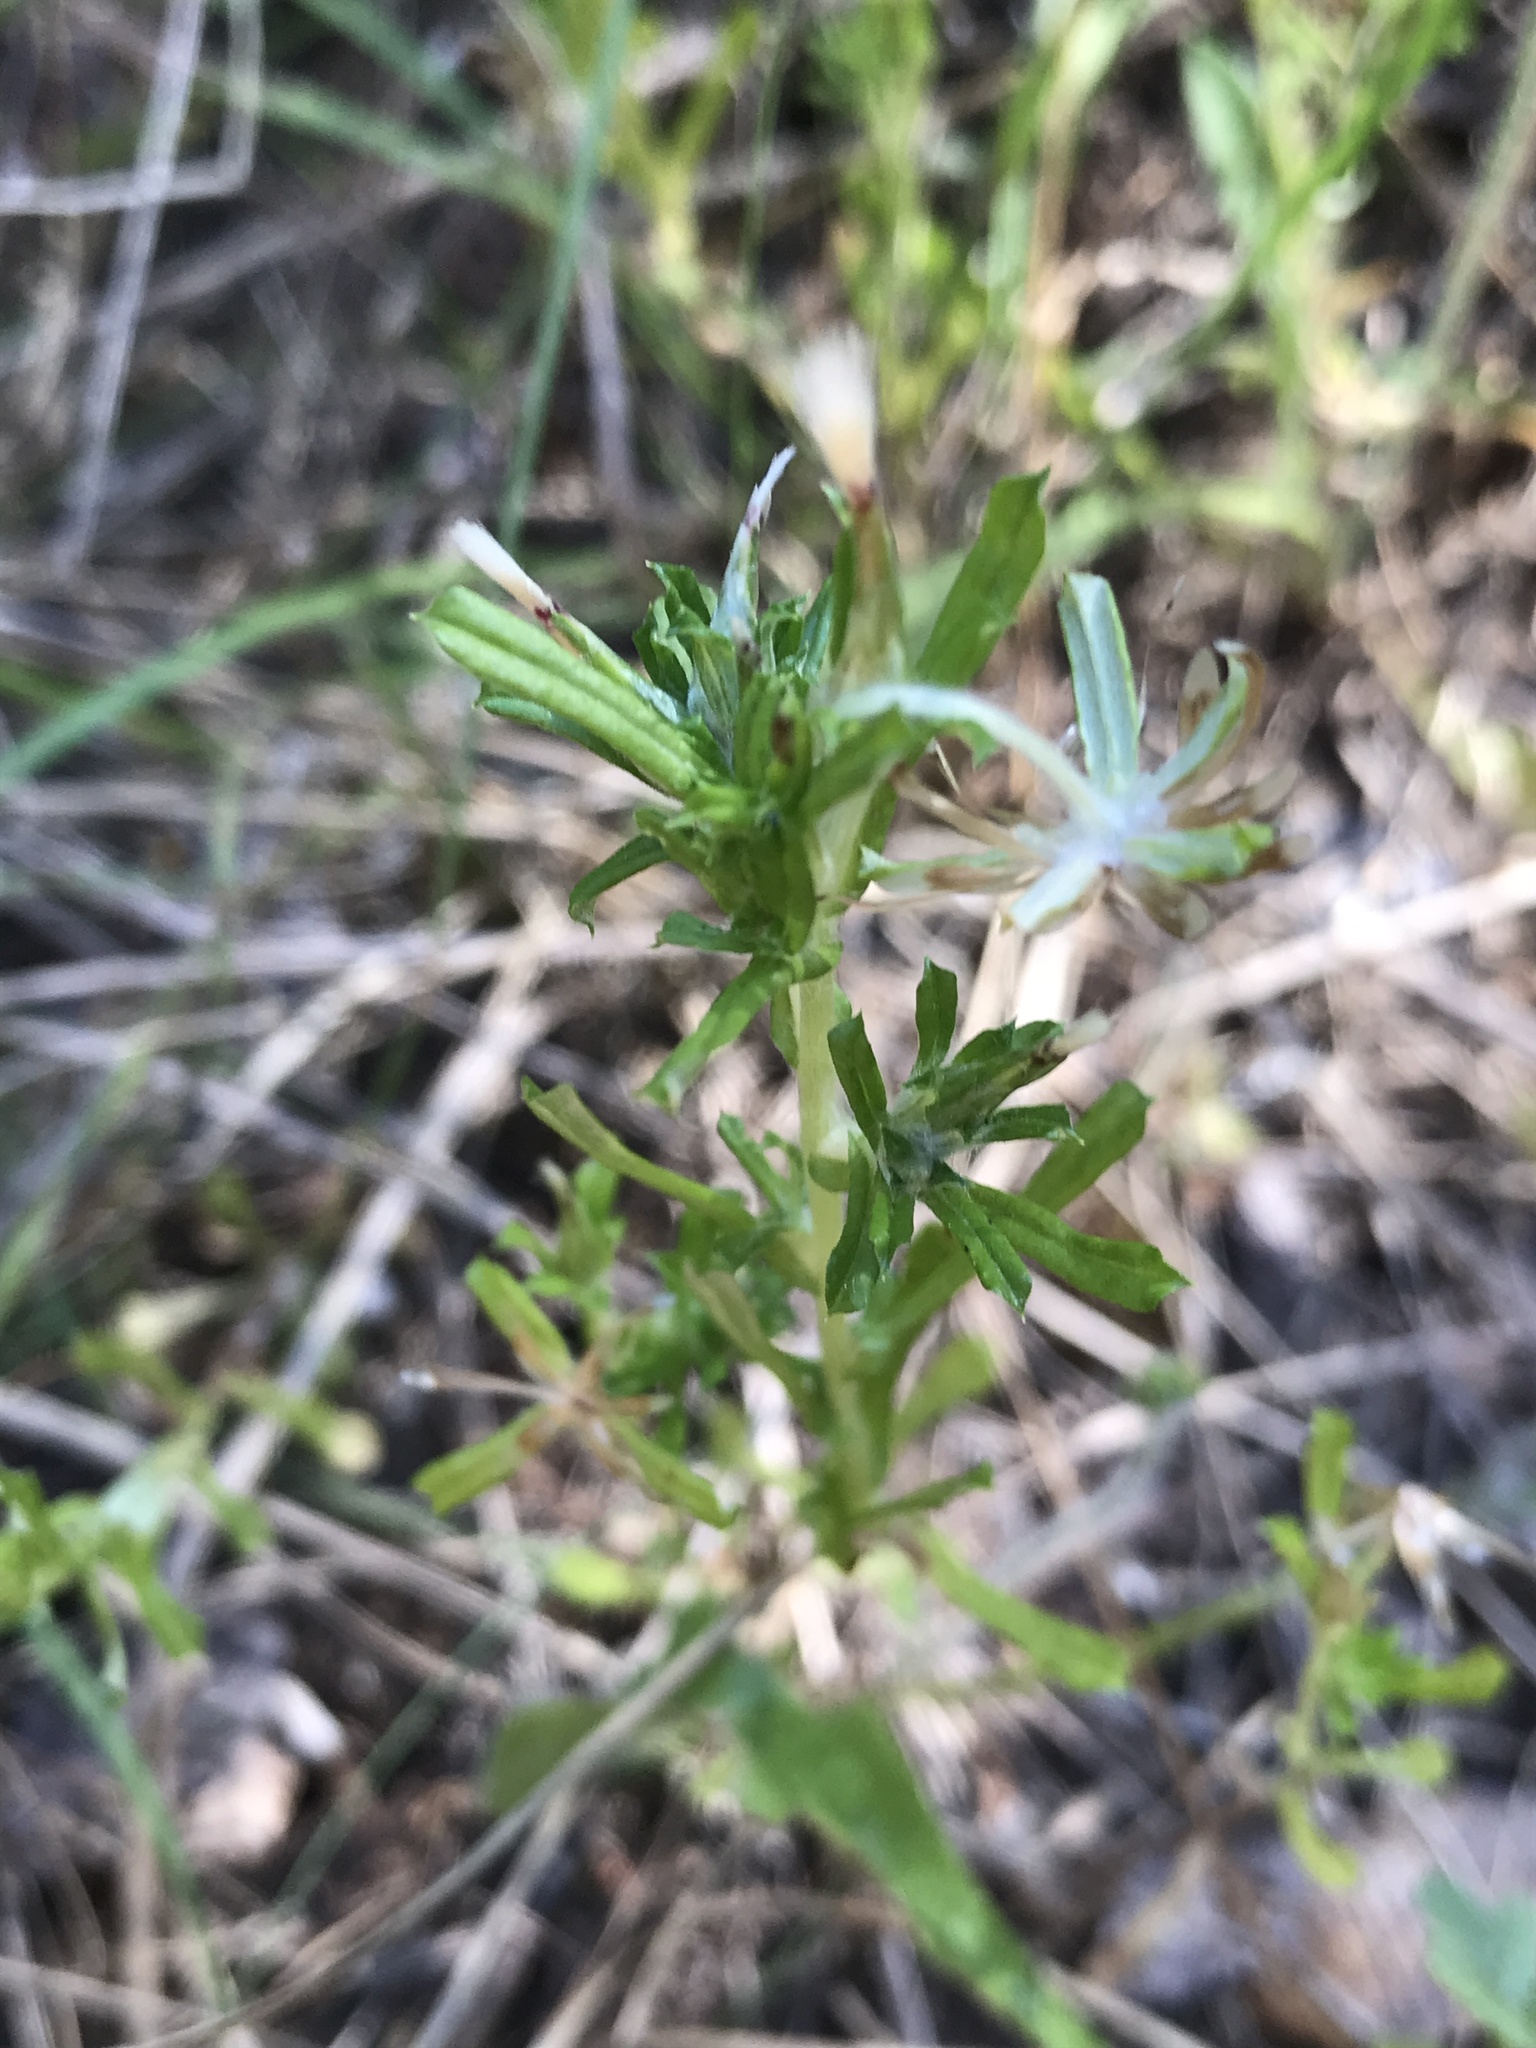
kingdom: Plantae
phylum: Tracheophyta
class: Magnoliopsida
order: Asterales
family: Asteraceae
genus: Facelis
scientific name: Facelis retusa
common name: Annual trampweed
